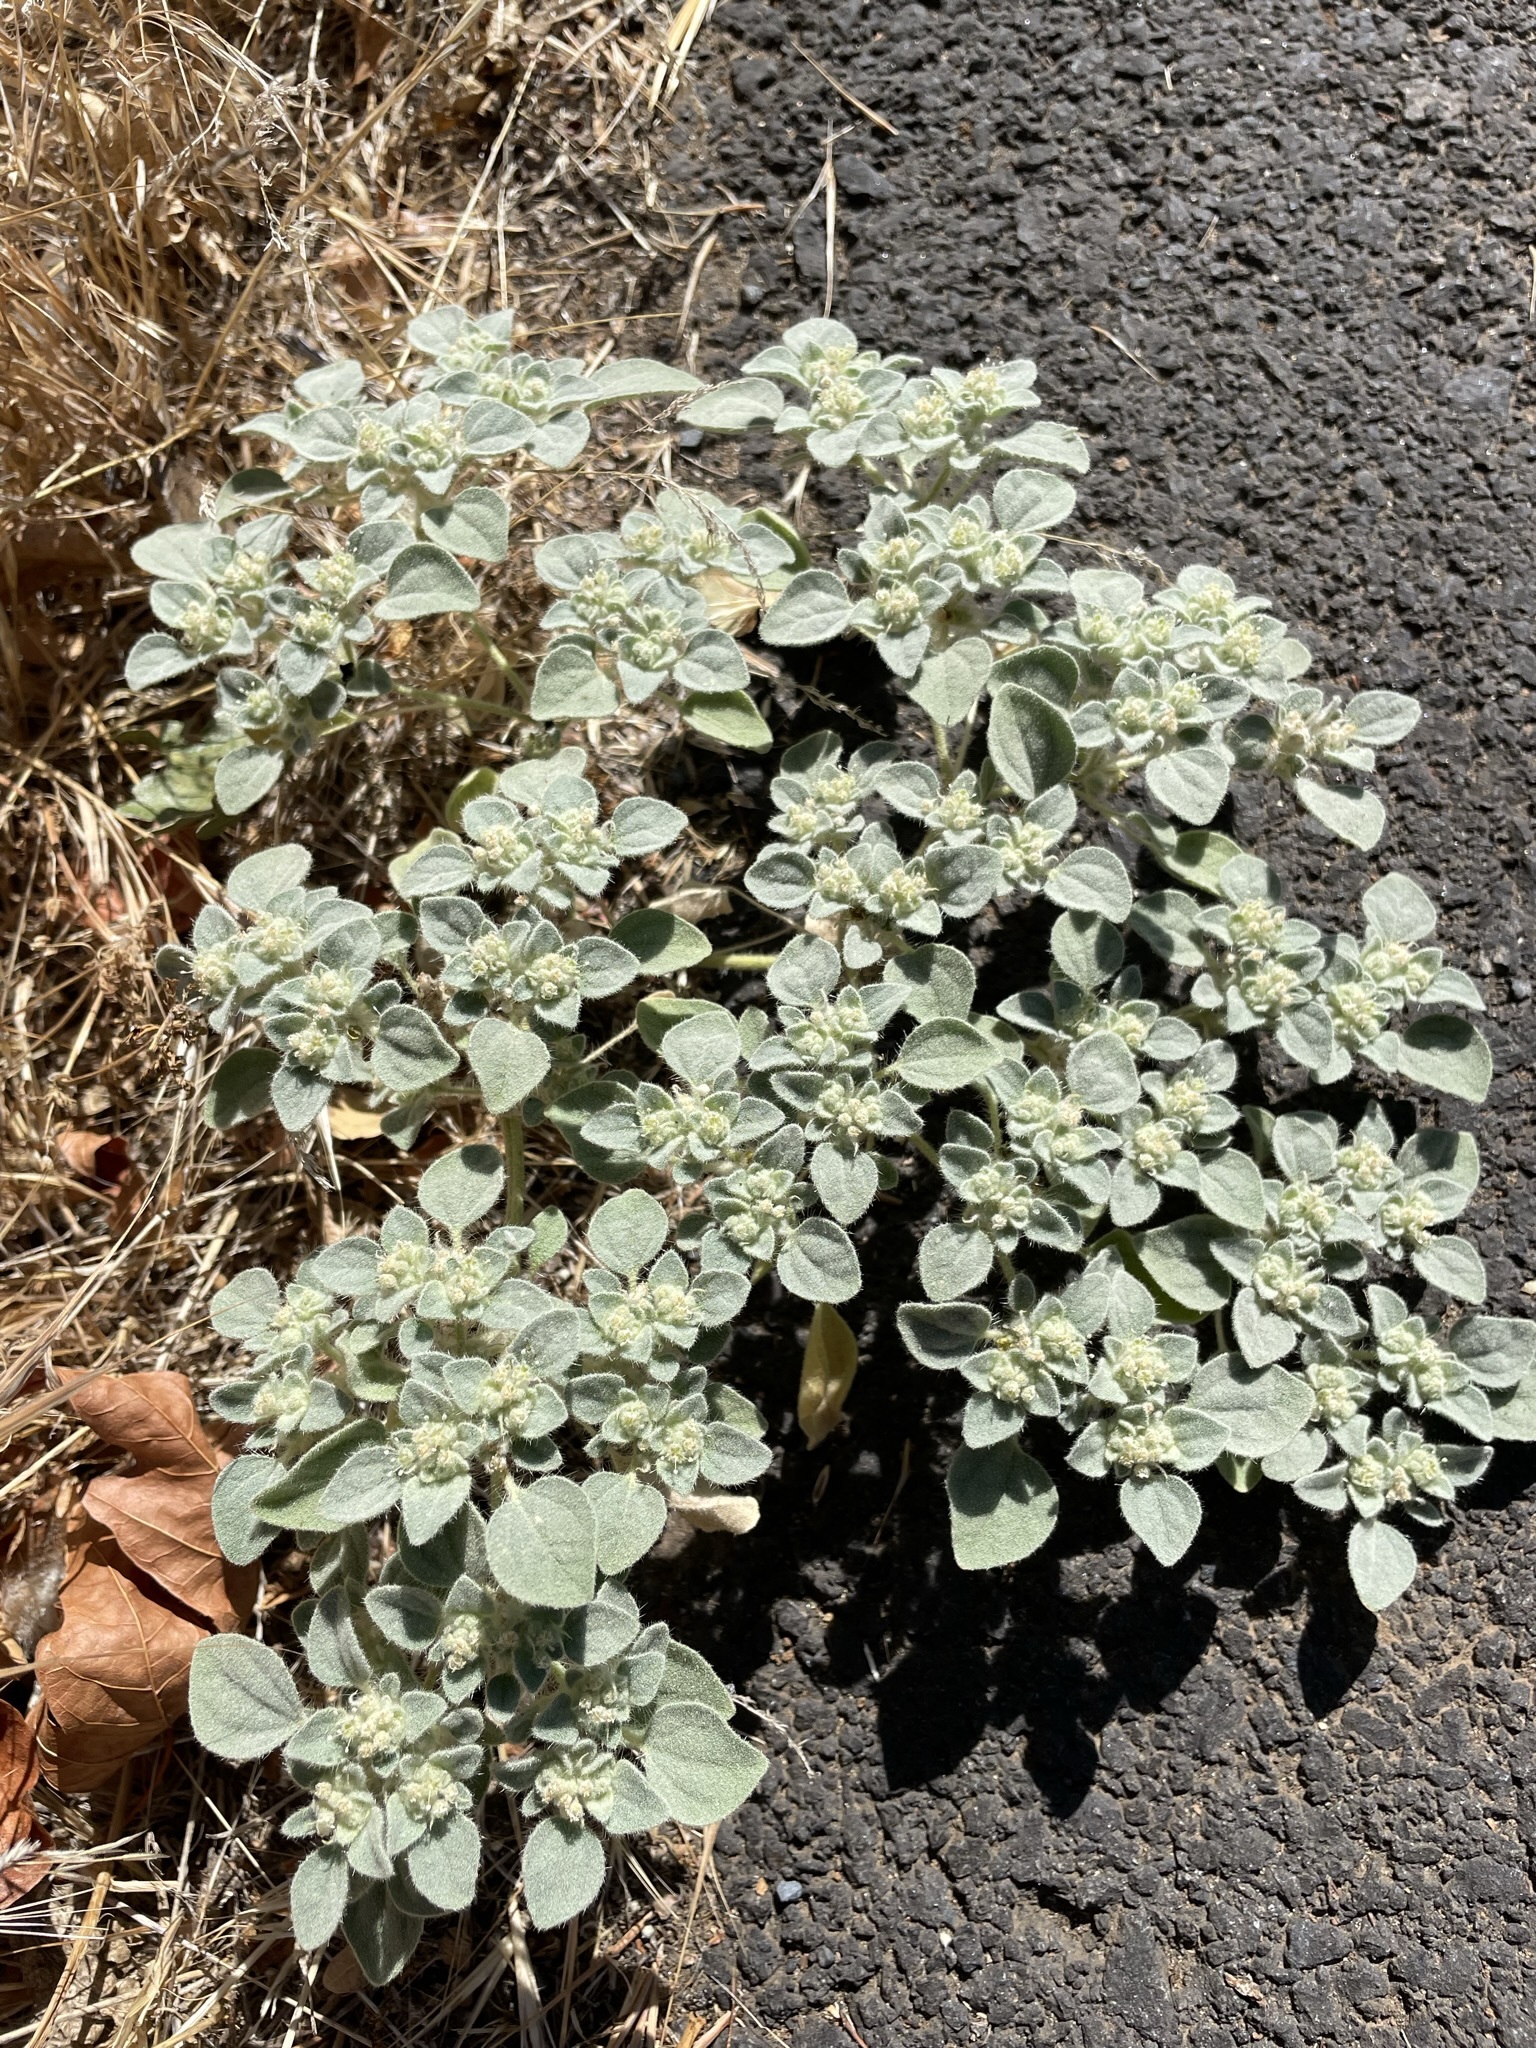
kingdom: Plantae
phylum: Tracheophyta
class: Magnoliopsida
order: Malpighiales
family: Euphorbiaceae
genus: Croton
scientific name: Croton setiger
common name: Dove weed
